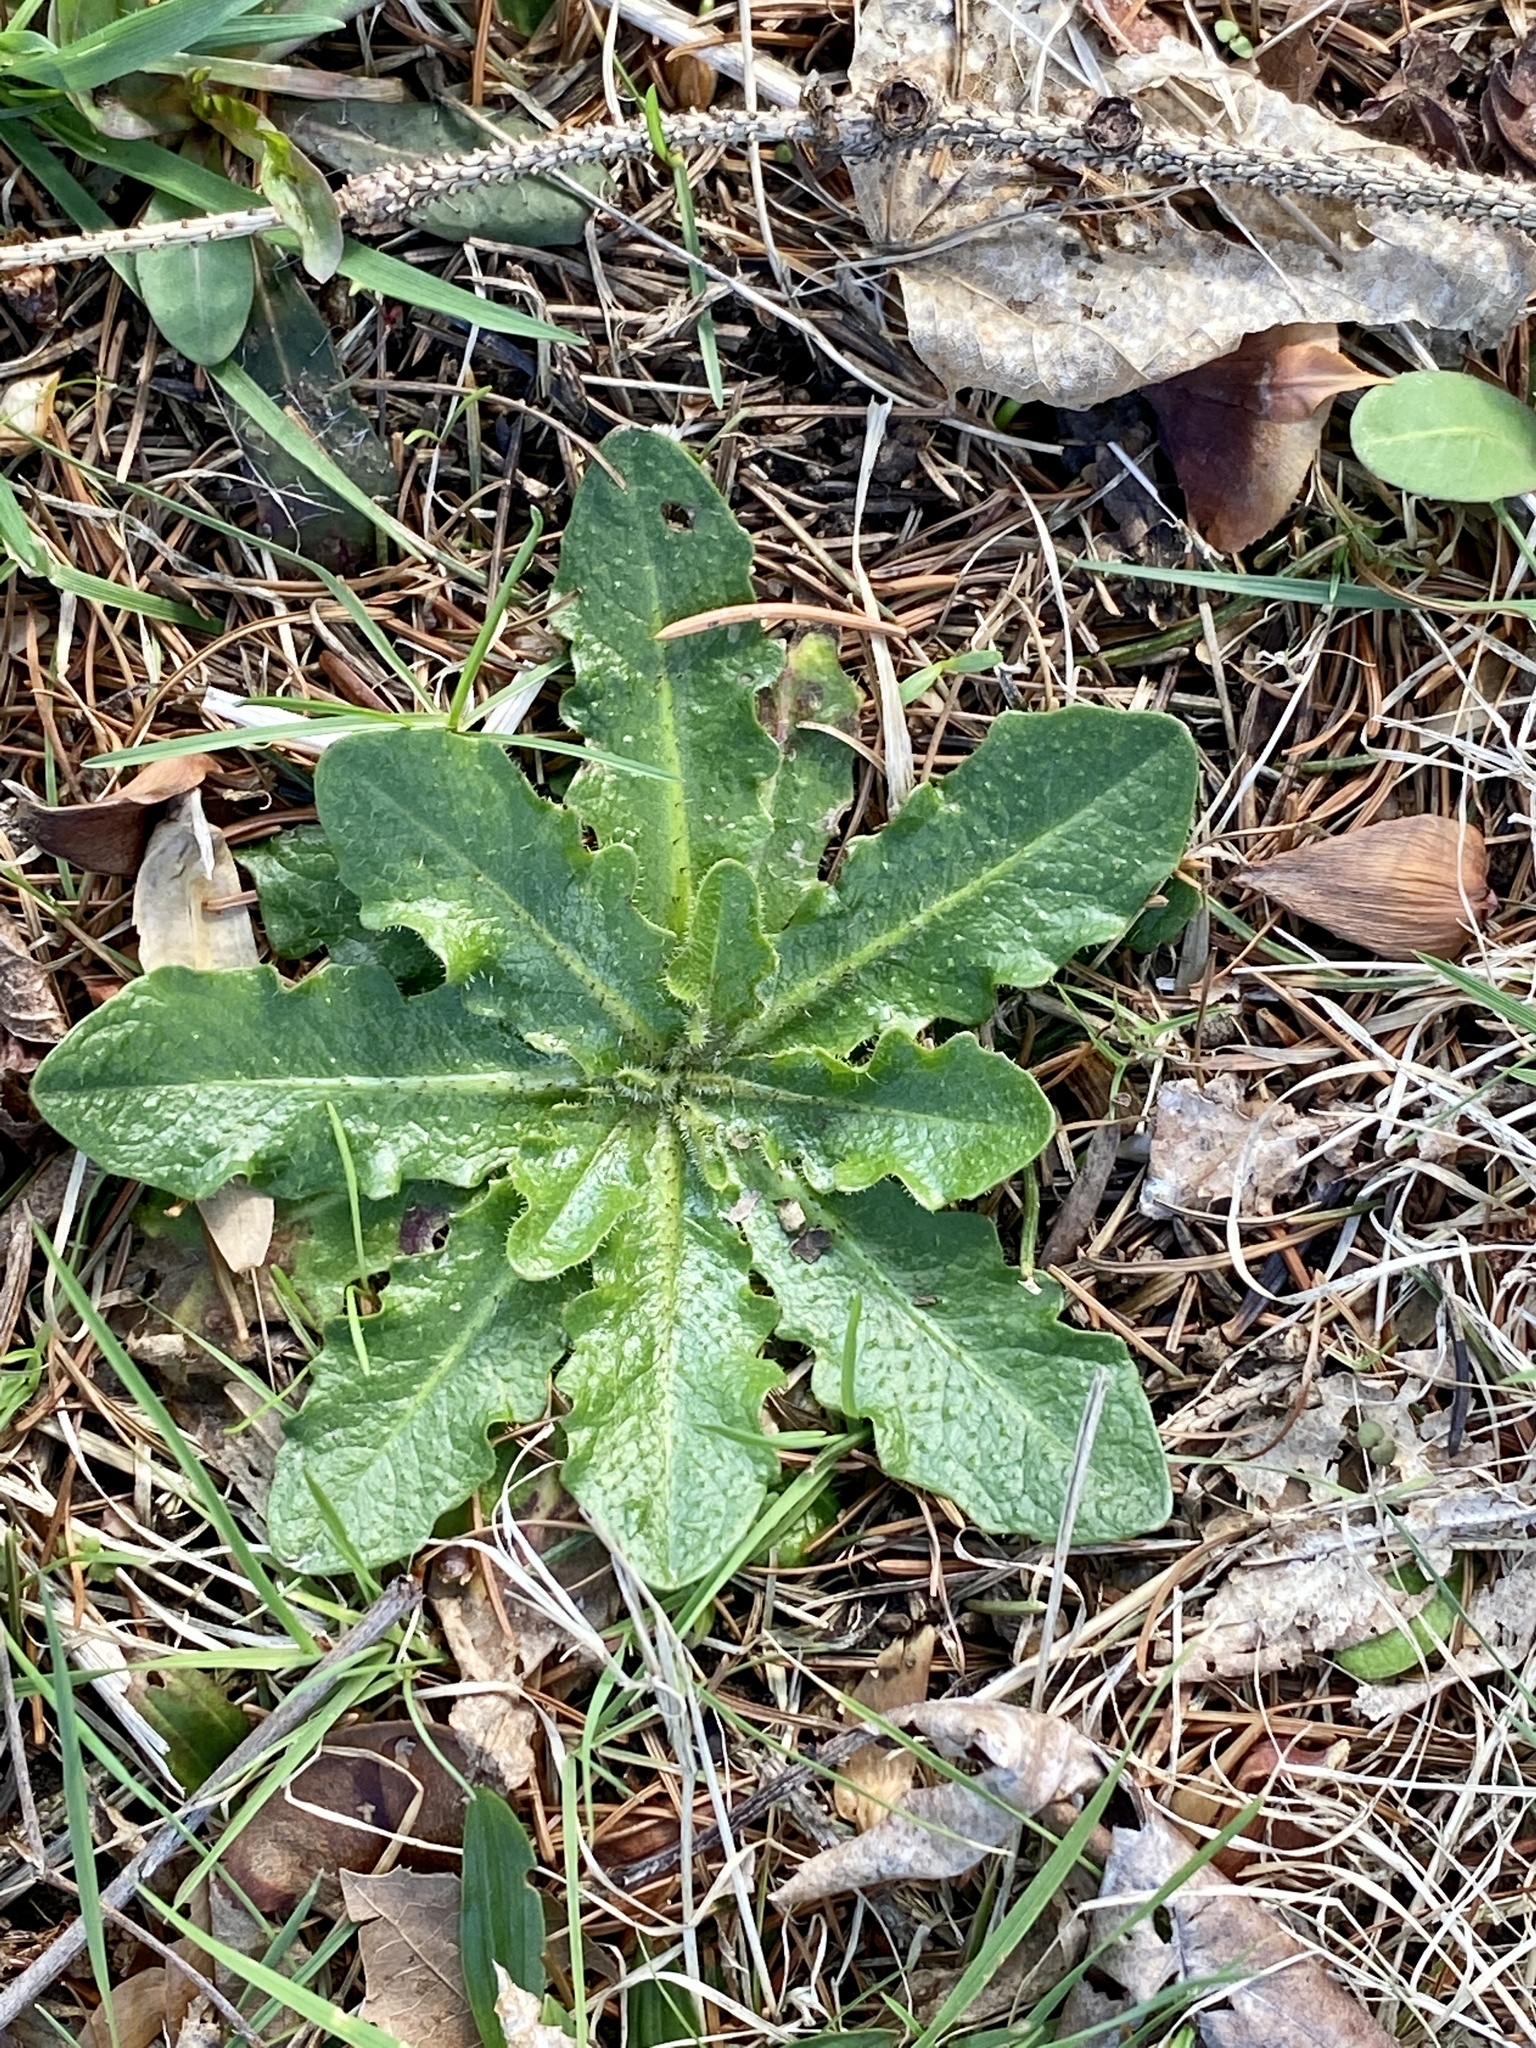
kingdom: Plantae
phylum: Tracheophyta
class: Magnoliopsida
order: Asterales
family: Asteraceae
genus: Hypochaeris
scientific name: Hypochaeris radicata
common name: Flatweed
